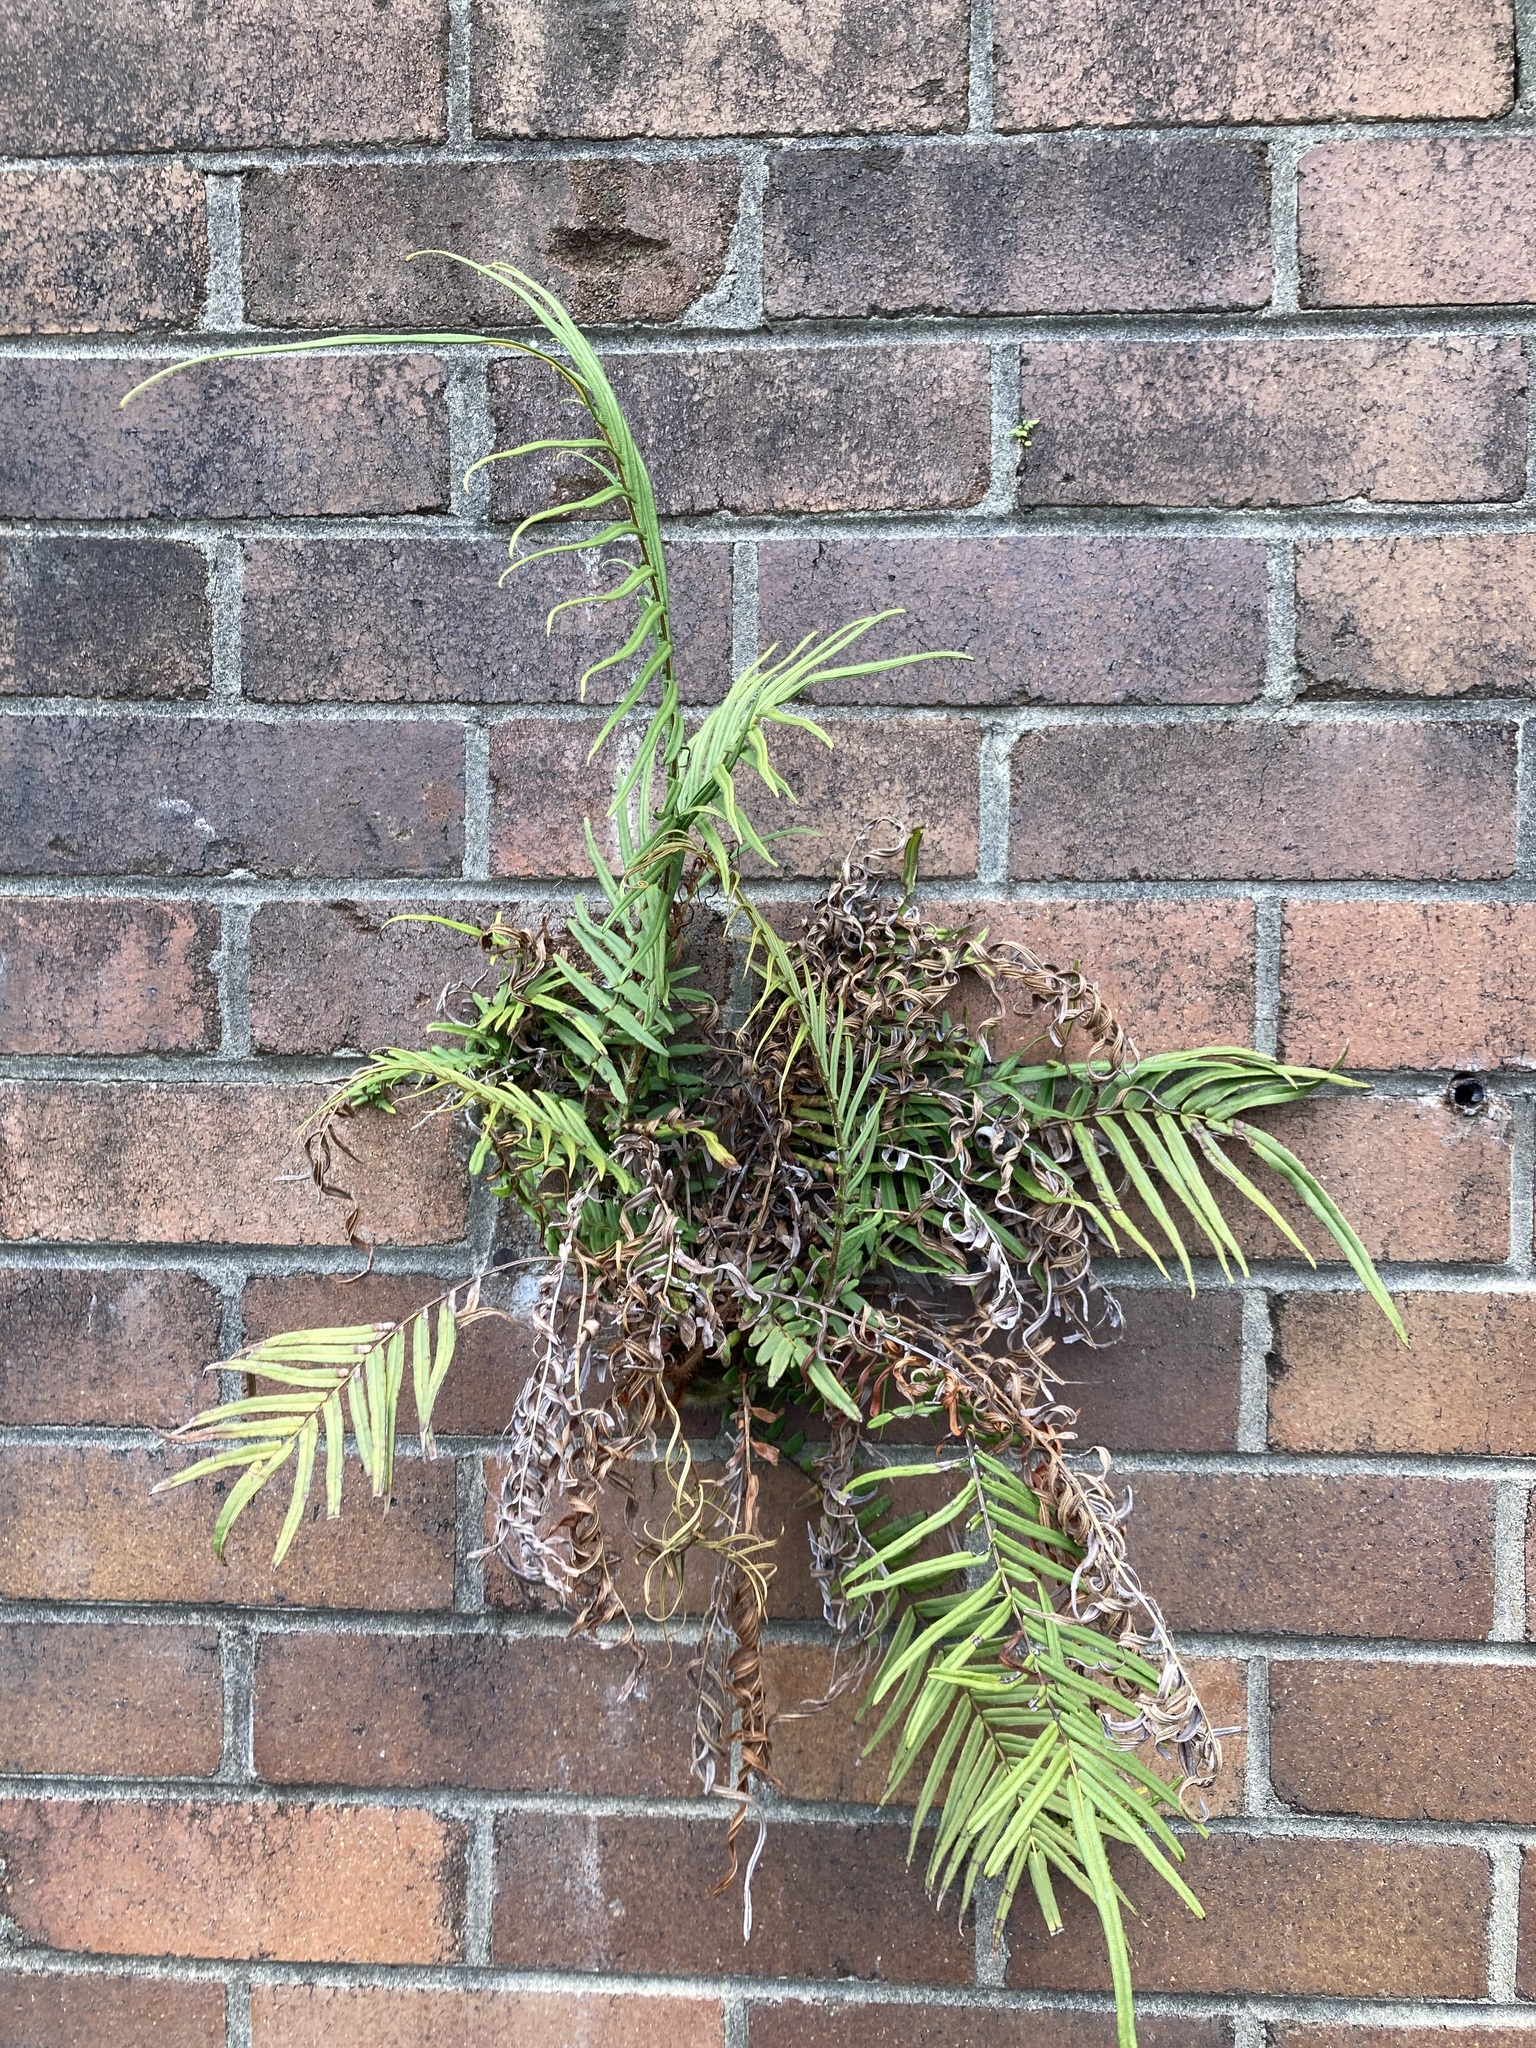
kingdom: Plantae
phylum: Tracheophyta
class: Polypodiopsida
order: Polypodiales
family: Pteridaceae
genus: Pteris
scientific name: Pteris vittata
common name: Ladder brake
